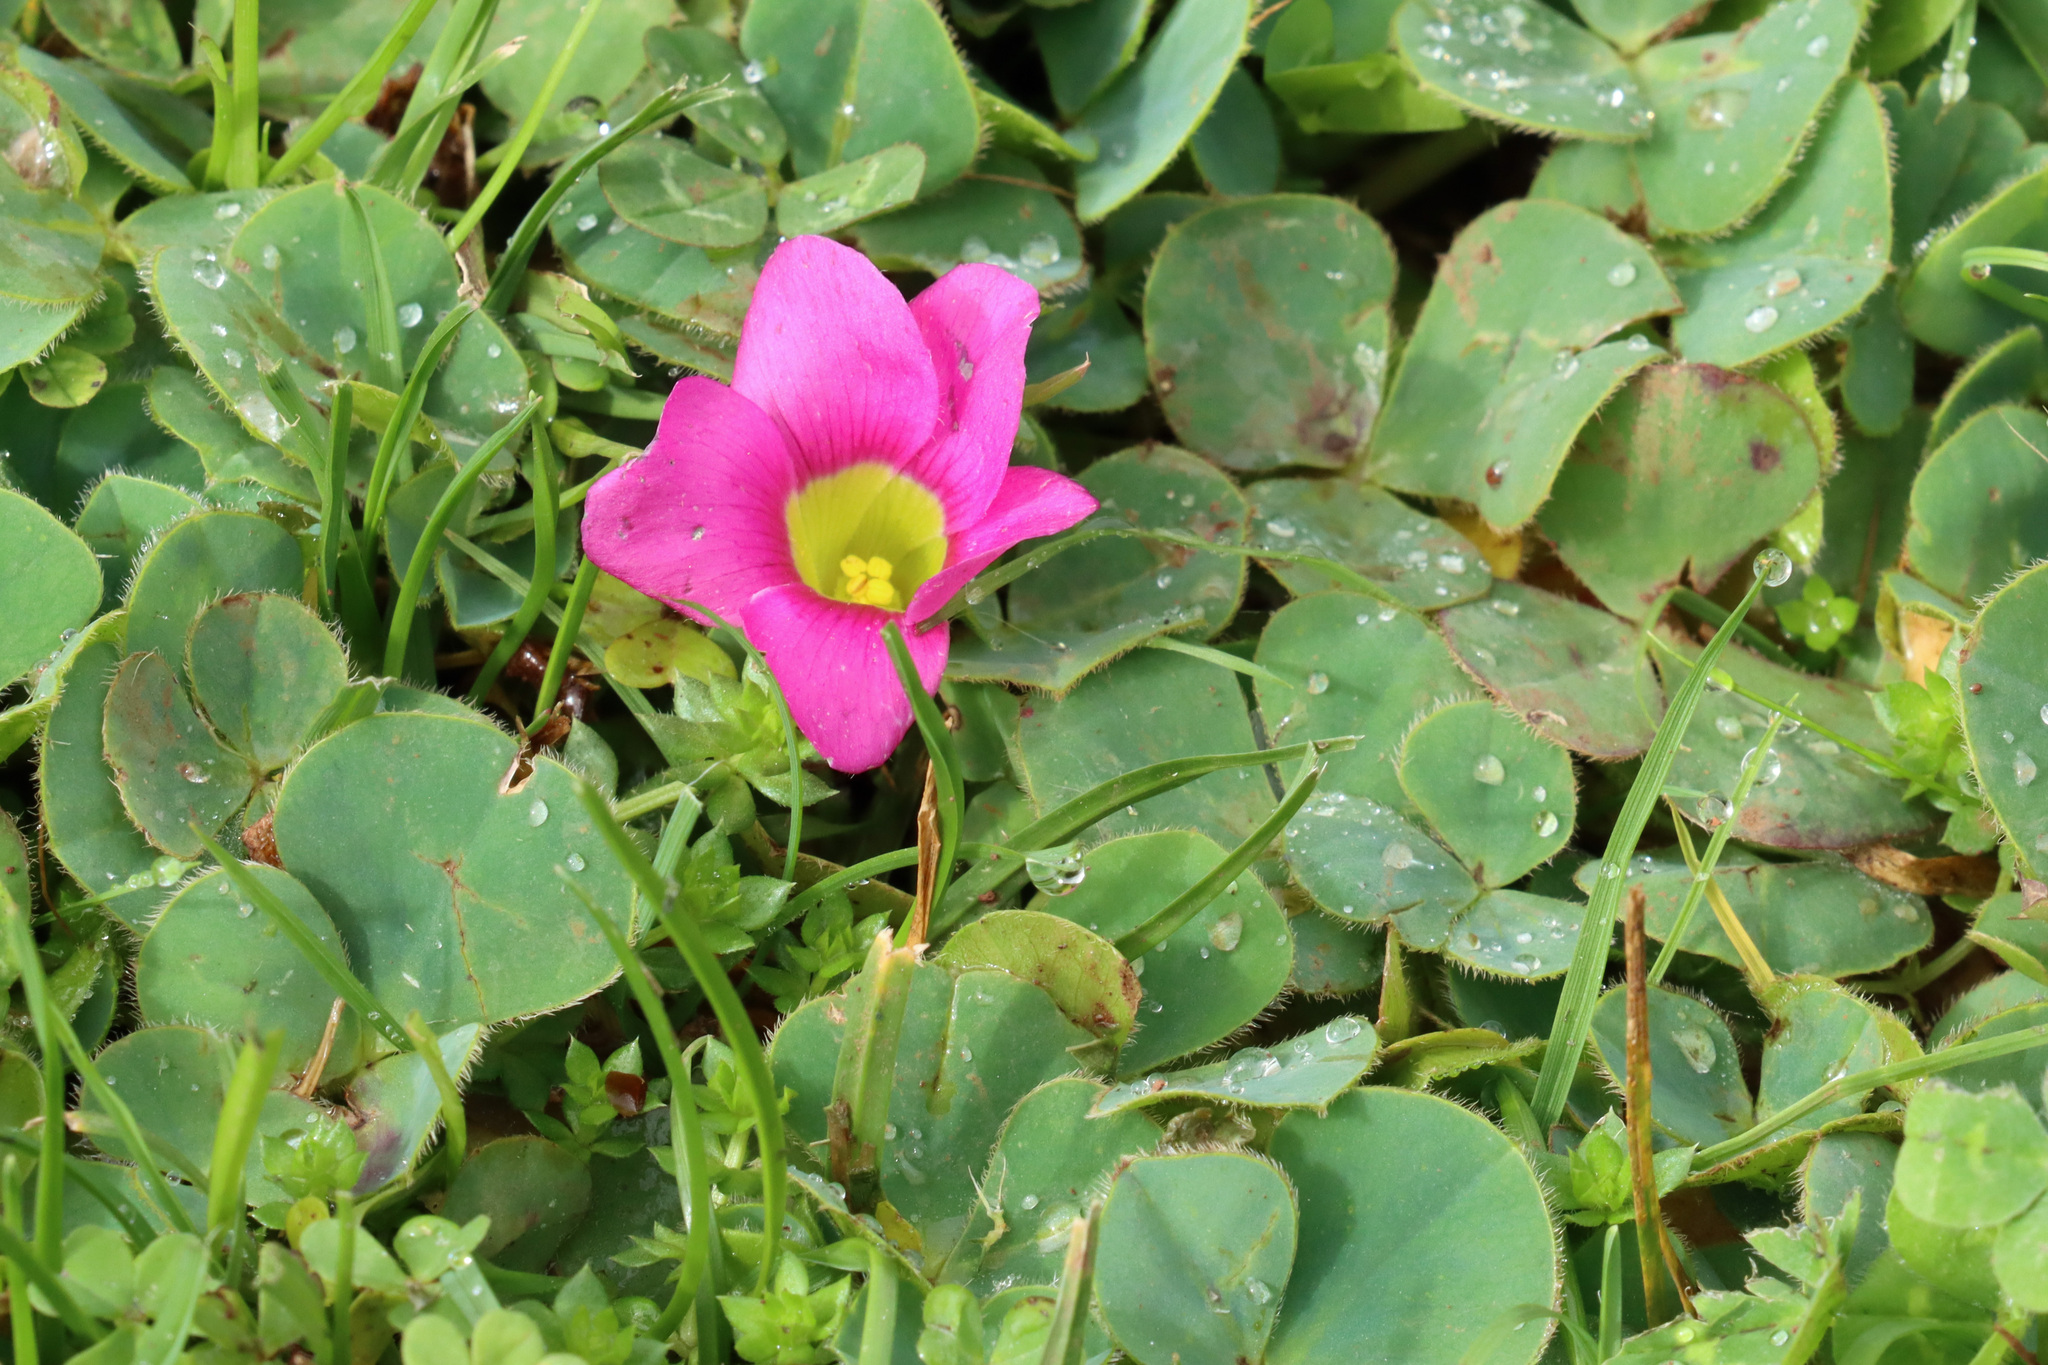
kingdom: Plantae
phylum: Tracheophyta
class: Magnoliopsida
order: Oxalidales
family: Oxalidaceae
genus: Oxalis
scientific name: Oxalis purpurea
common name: Purple woodsorrel
